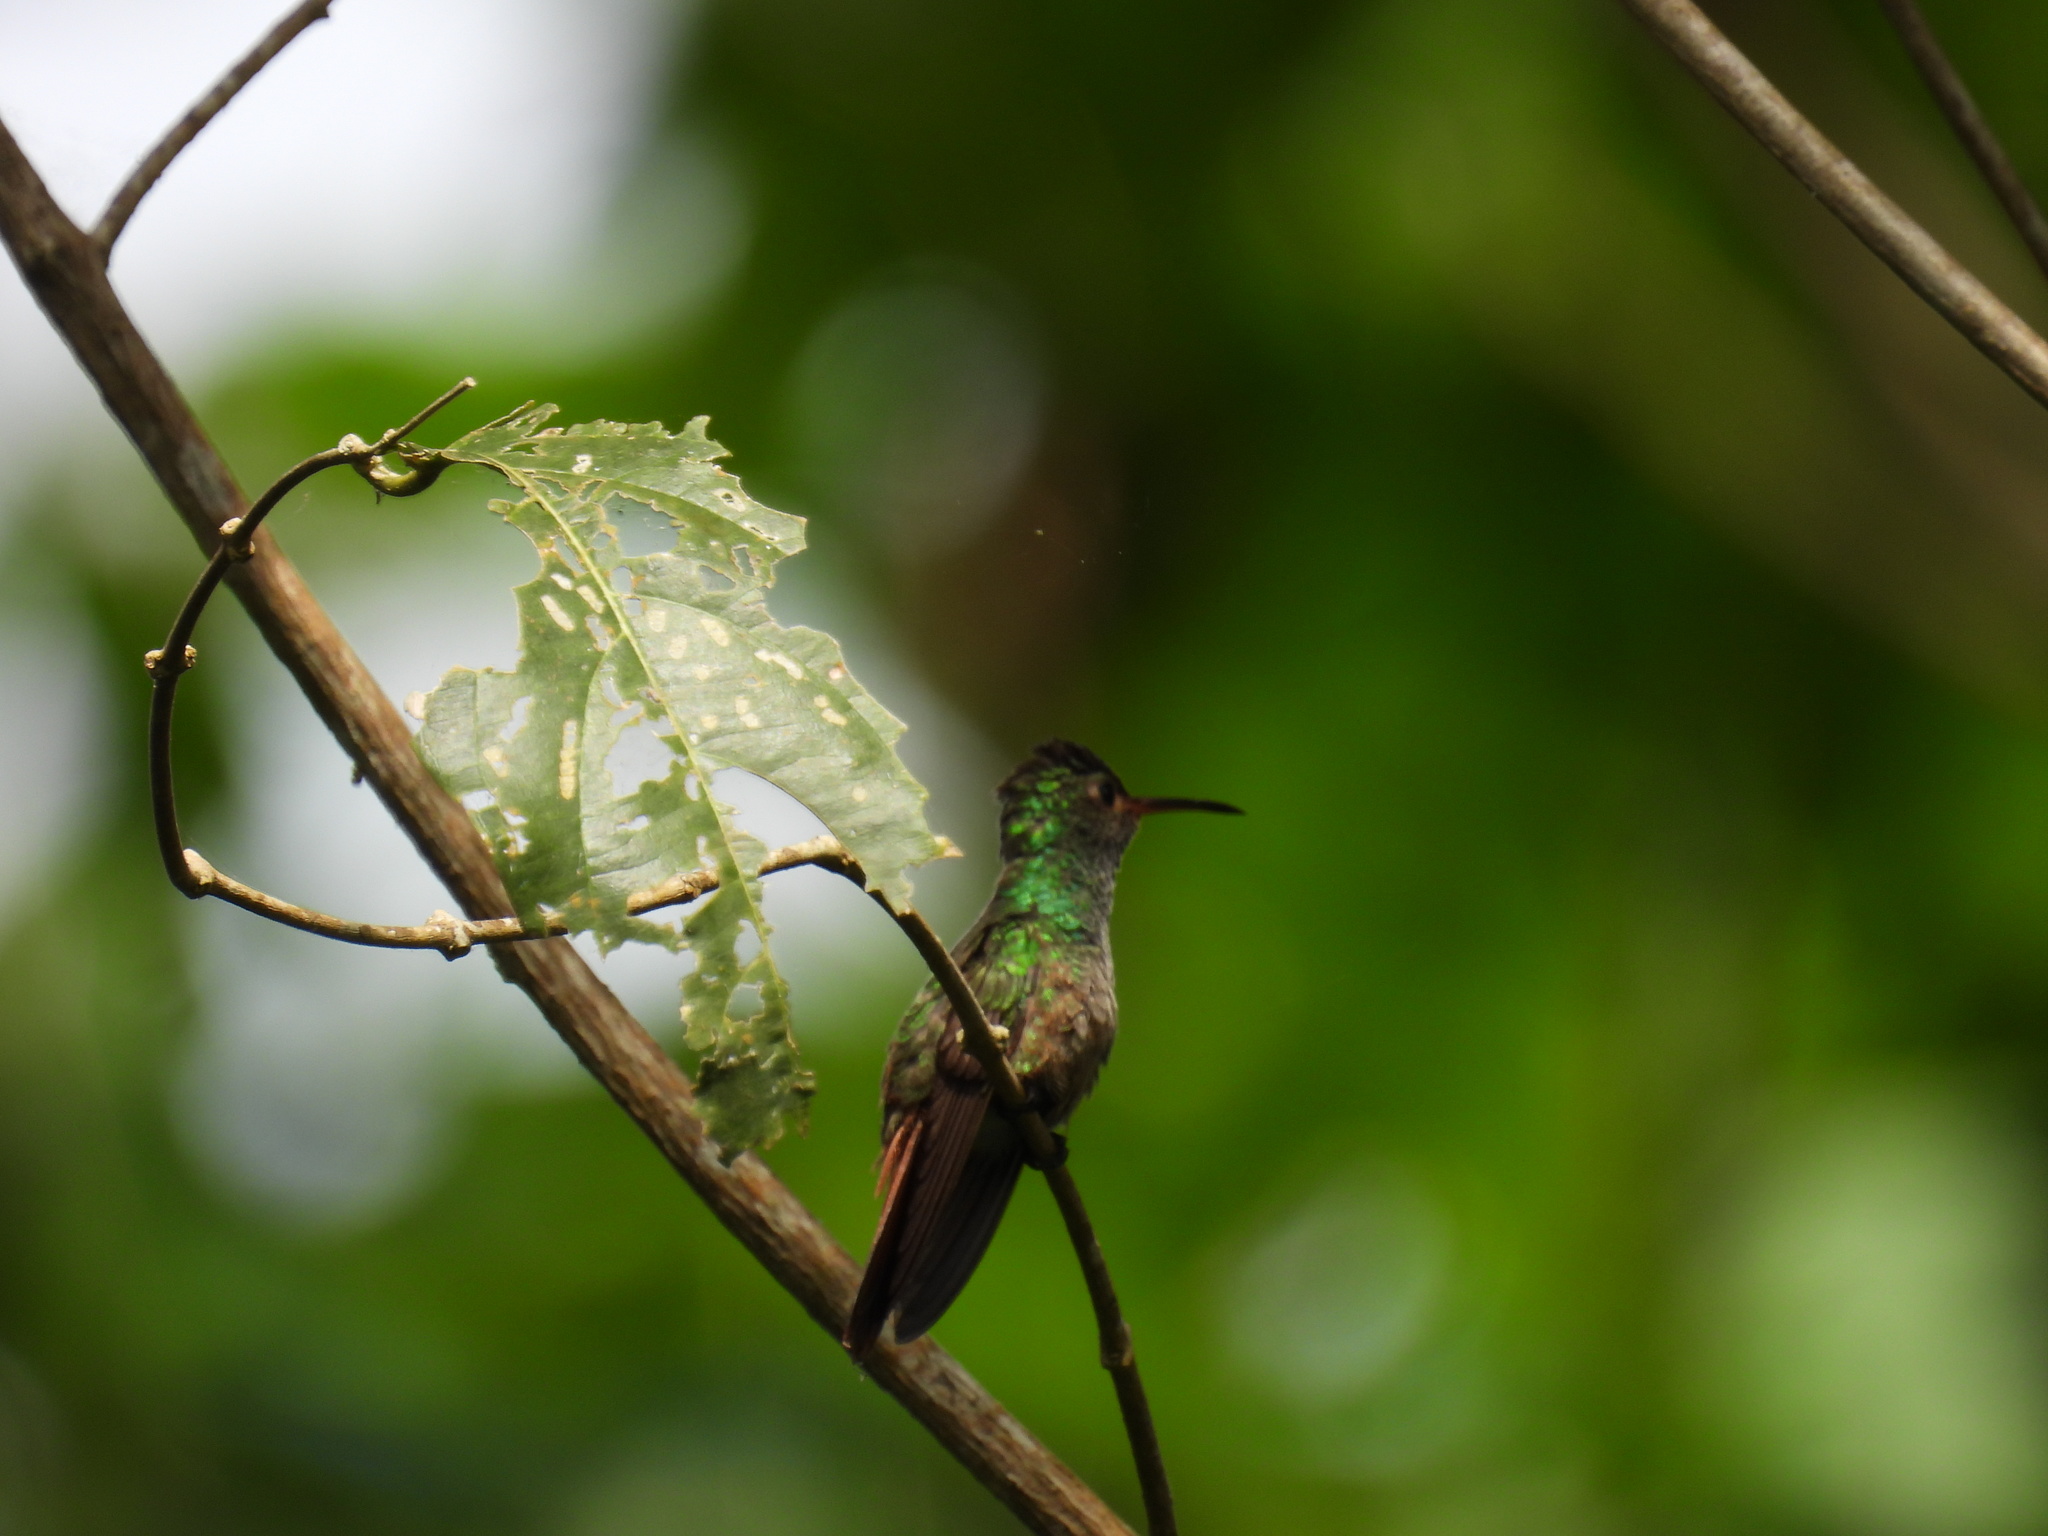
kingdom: Animalia
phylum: Chordata
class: Aves
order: Apodiformes
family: Trochilidae
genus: Amazilia
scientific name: Amazilia tzacatl
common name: Rufous-tailed hummingbird
